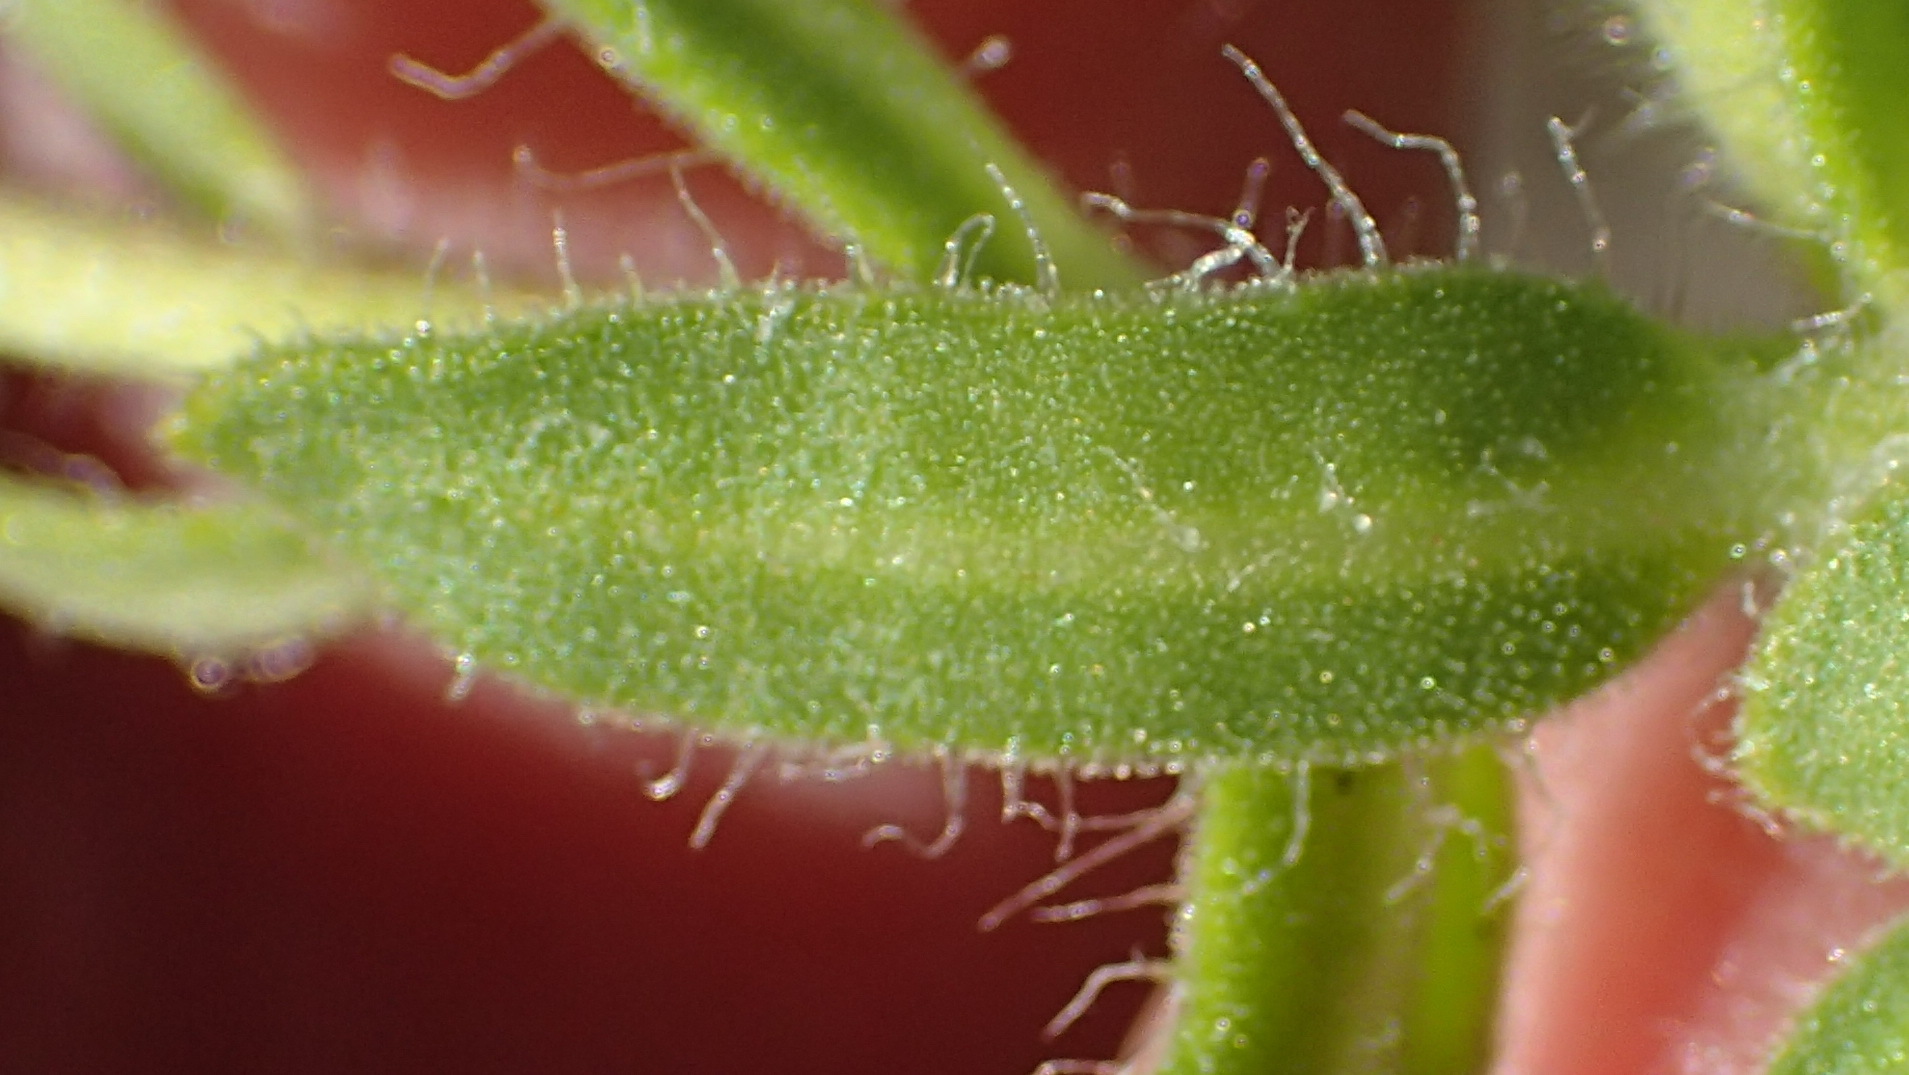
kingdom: Plantae
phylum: Tracheophyta
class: Magnoliopsida
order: Asterales
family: Asteraceae
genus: Felicia
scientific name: Felicia amoena
